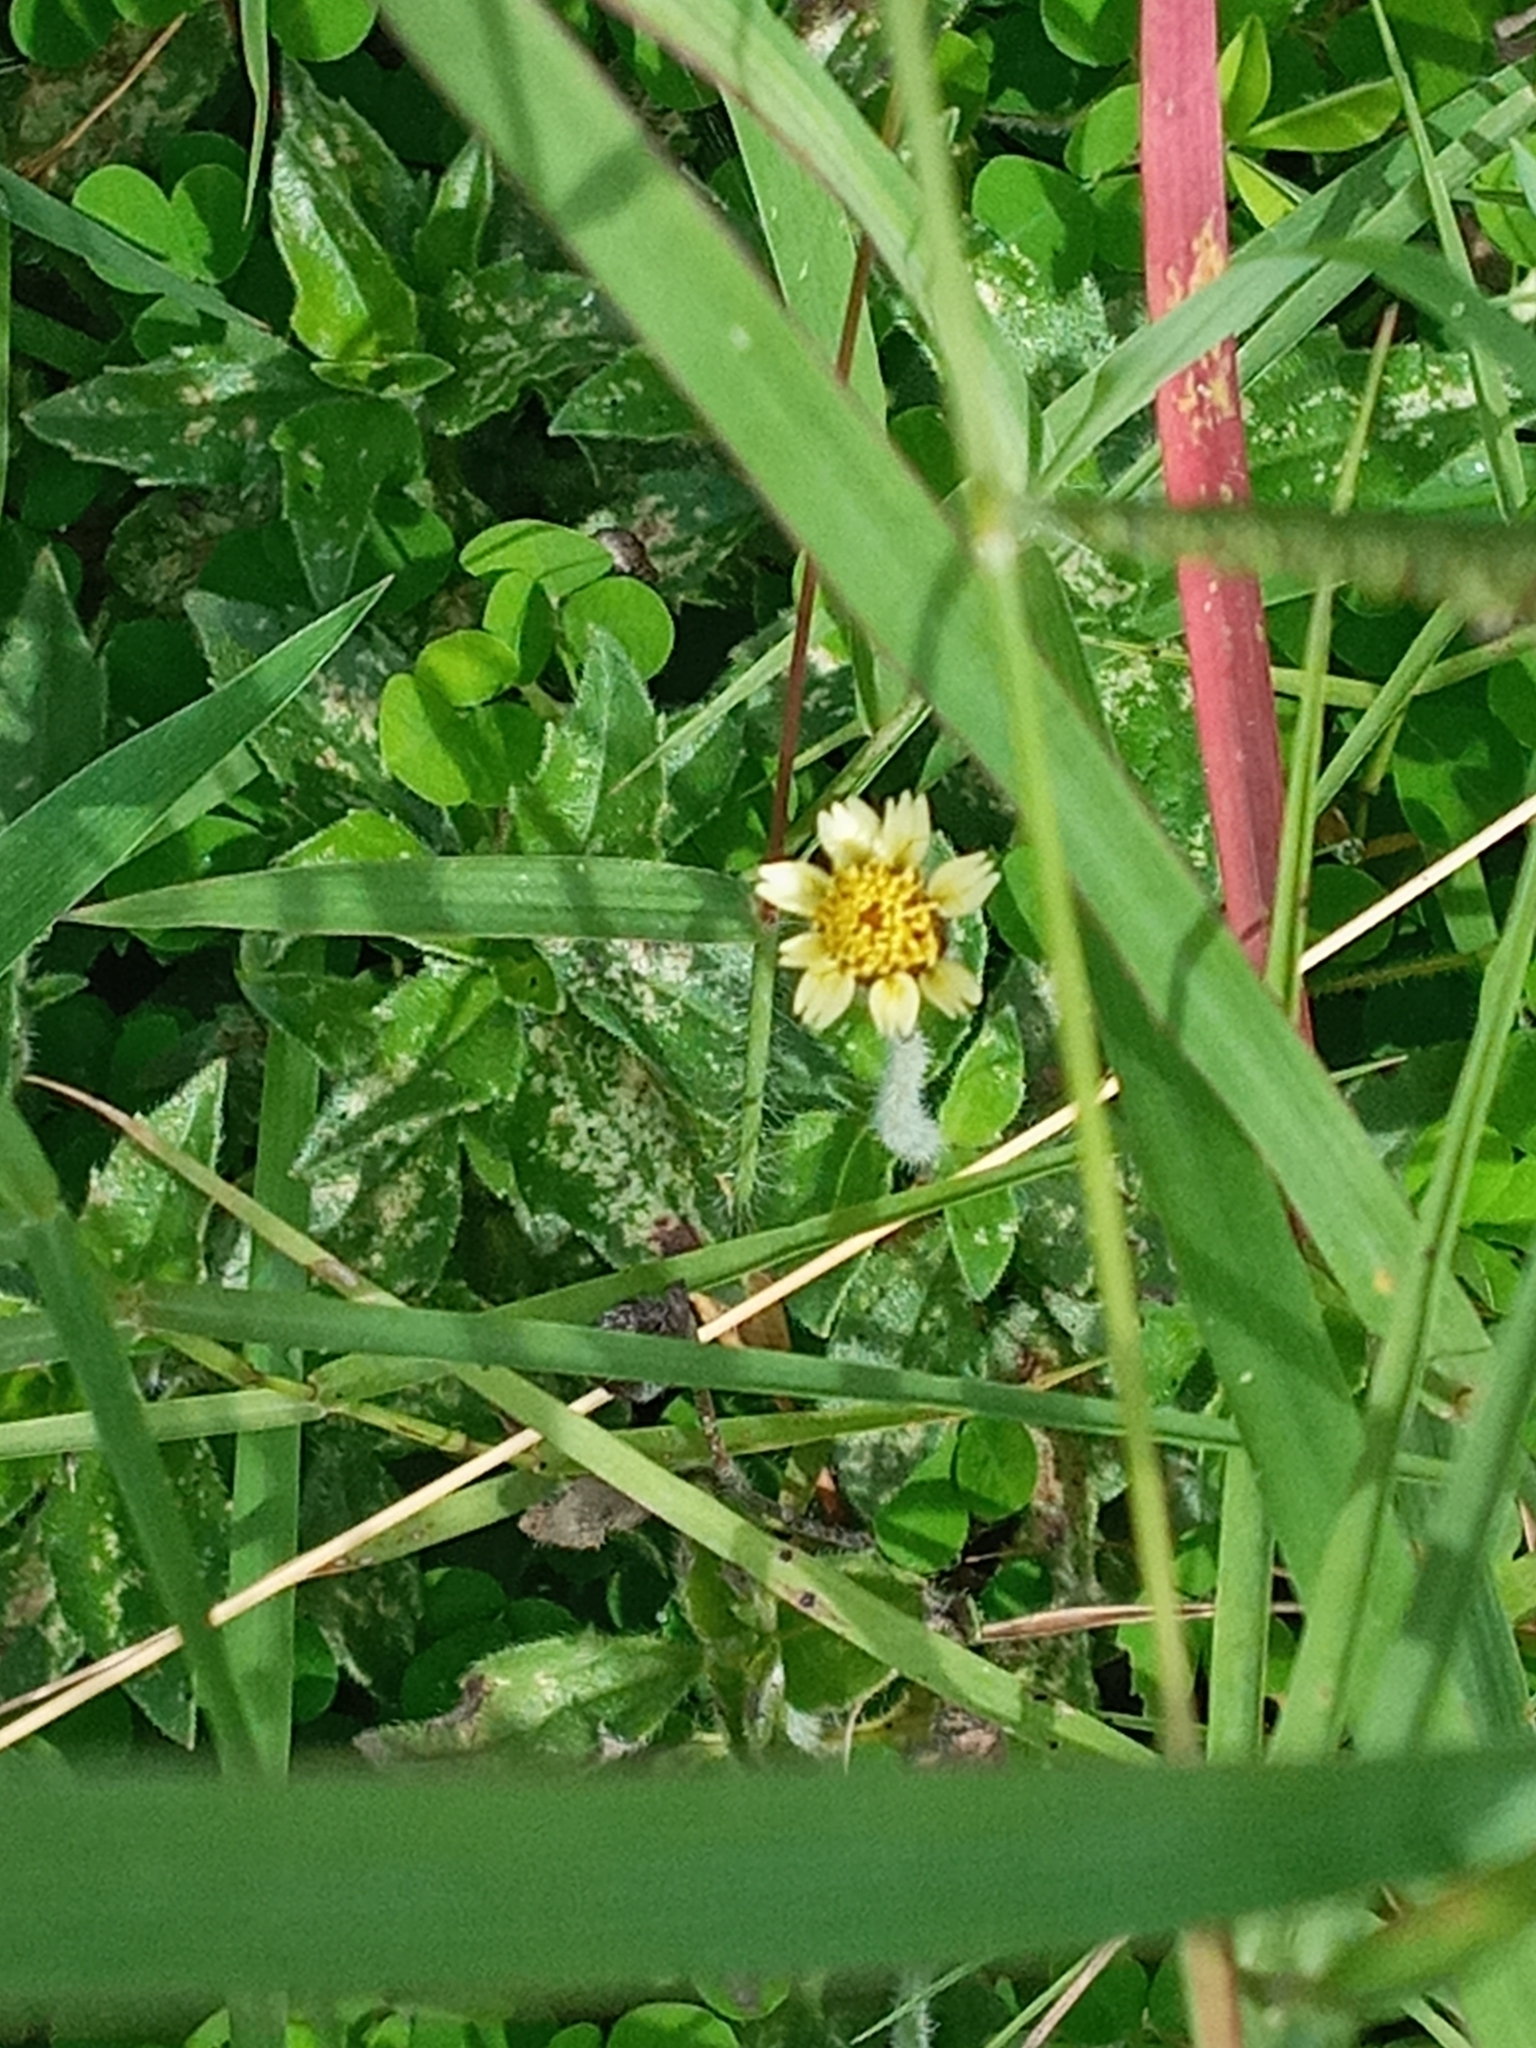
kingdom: Plantae
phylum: Tracheophyta
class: Magnoliopsida
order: Asterales
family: Asteraceae
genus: Tridax
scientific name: Tridax procumbens
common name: Coatbuttons
